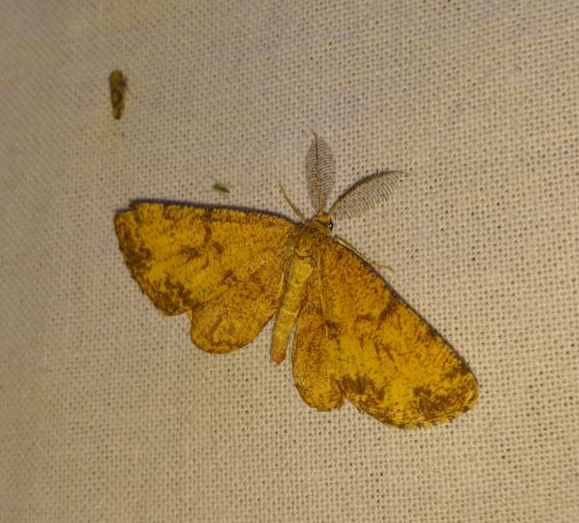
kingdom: Animalia
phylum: Arthropoda
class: Insecta
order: Lepidoptera
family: Geometridae
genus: Ematurga
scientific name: Ematurga atomaria
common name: Common heath
